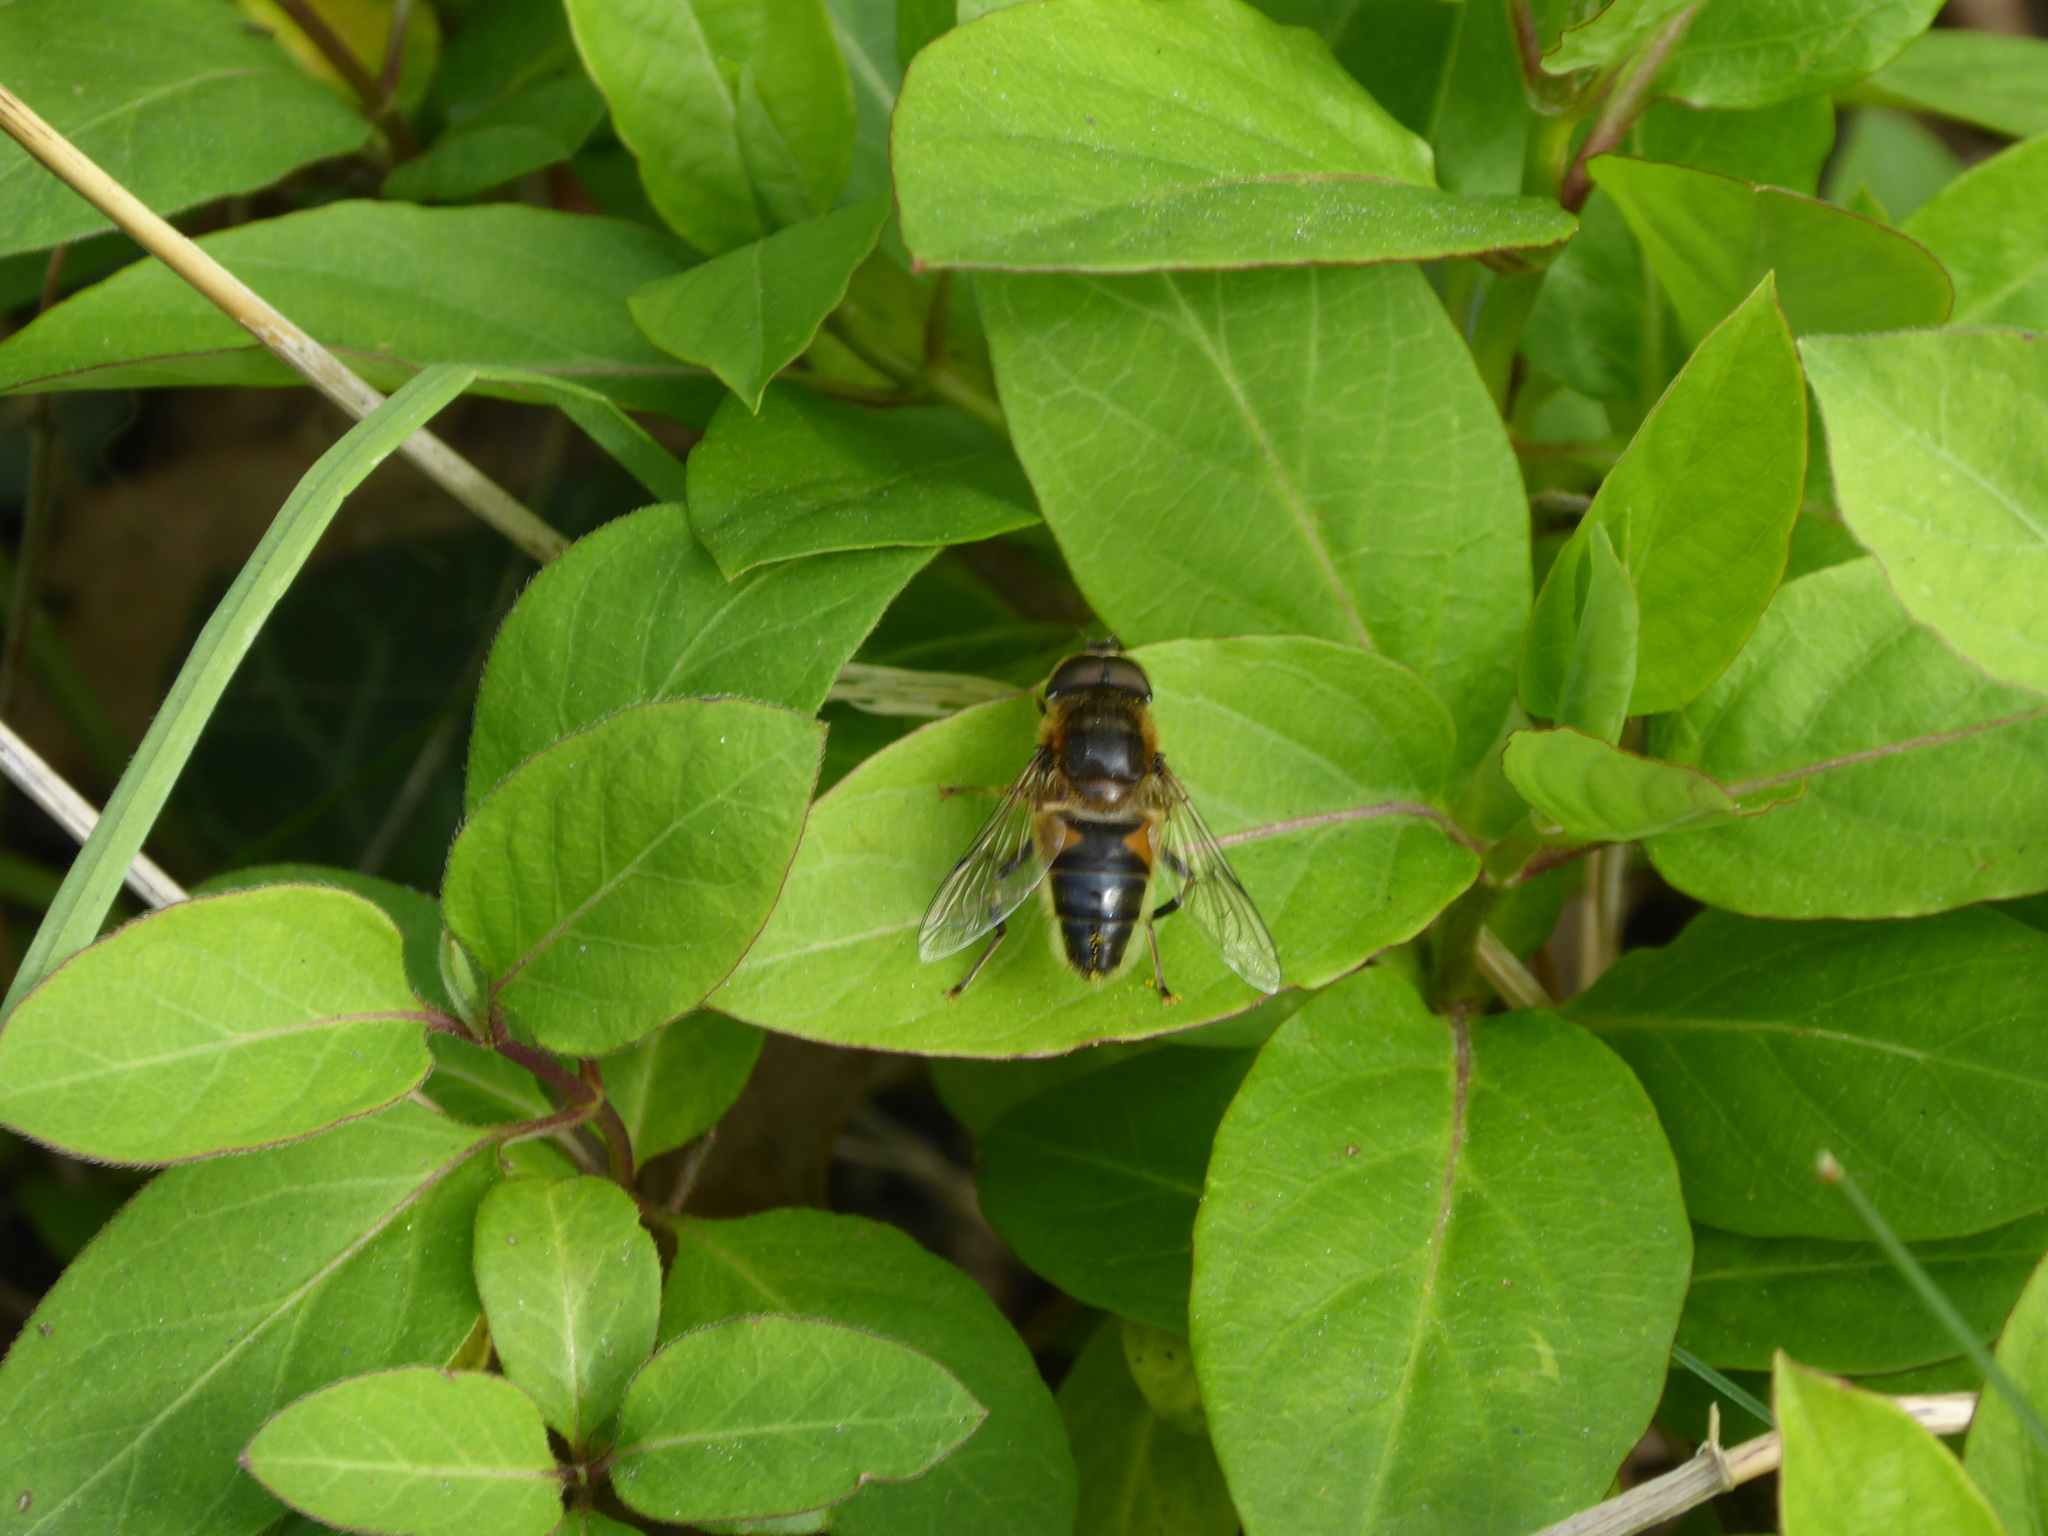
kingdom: Animalia
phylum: Arthropoda
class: Insecta
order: Diptera
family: Syrphidae
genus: Eristalis
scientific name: Eristalis pertinax
